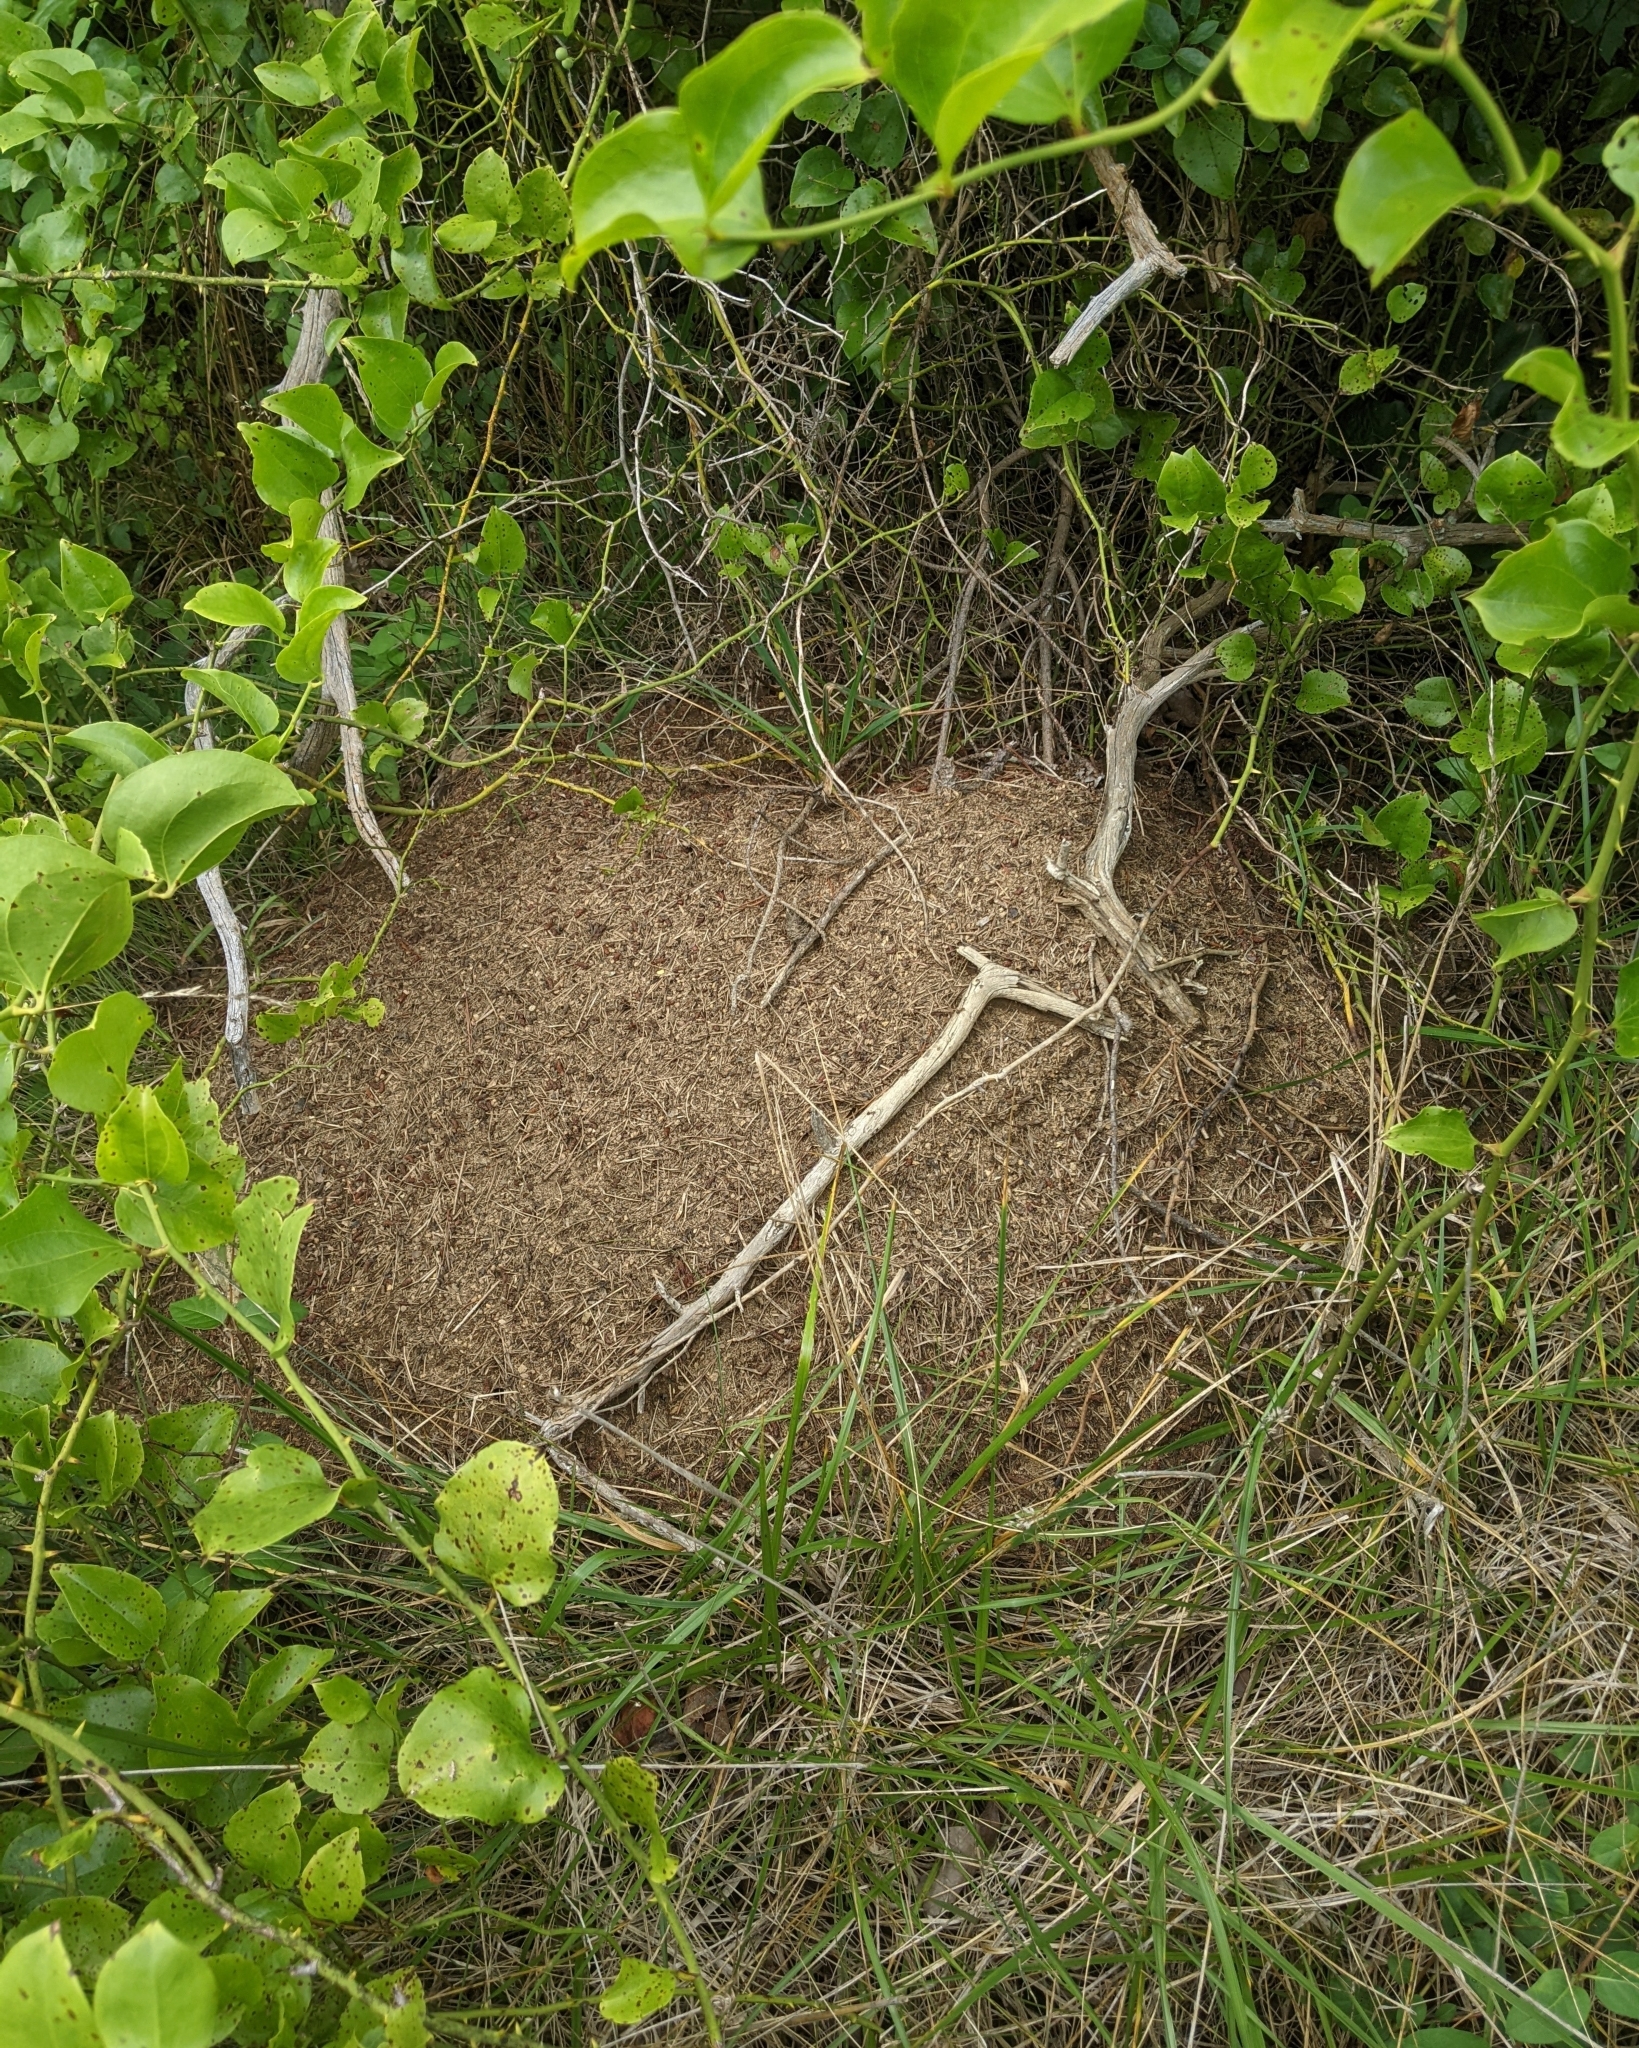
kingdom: Animalia
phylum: Arthropoda
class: Insecta
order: Hymenoptera
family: Formicidae
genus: Formica
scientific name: Formica exsectoides
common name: Allegheny mound ant
